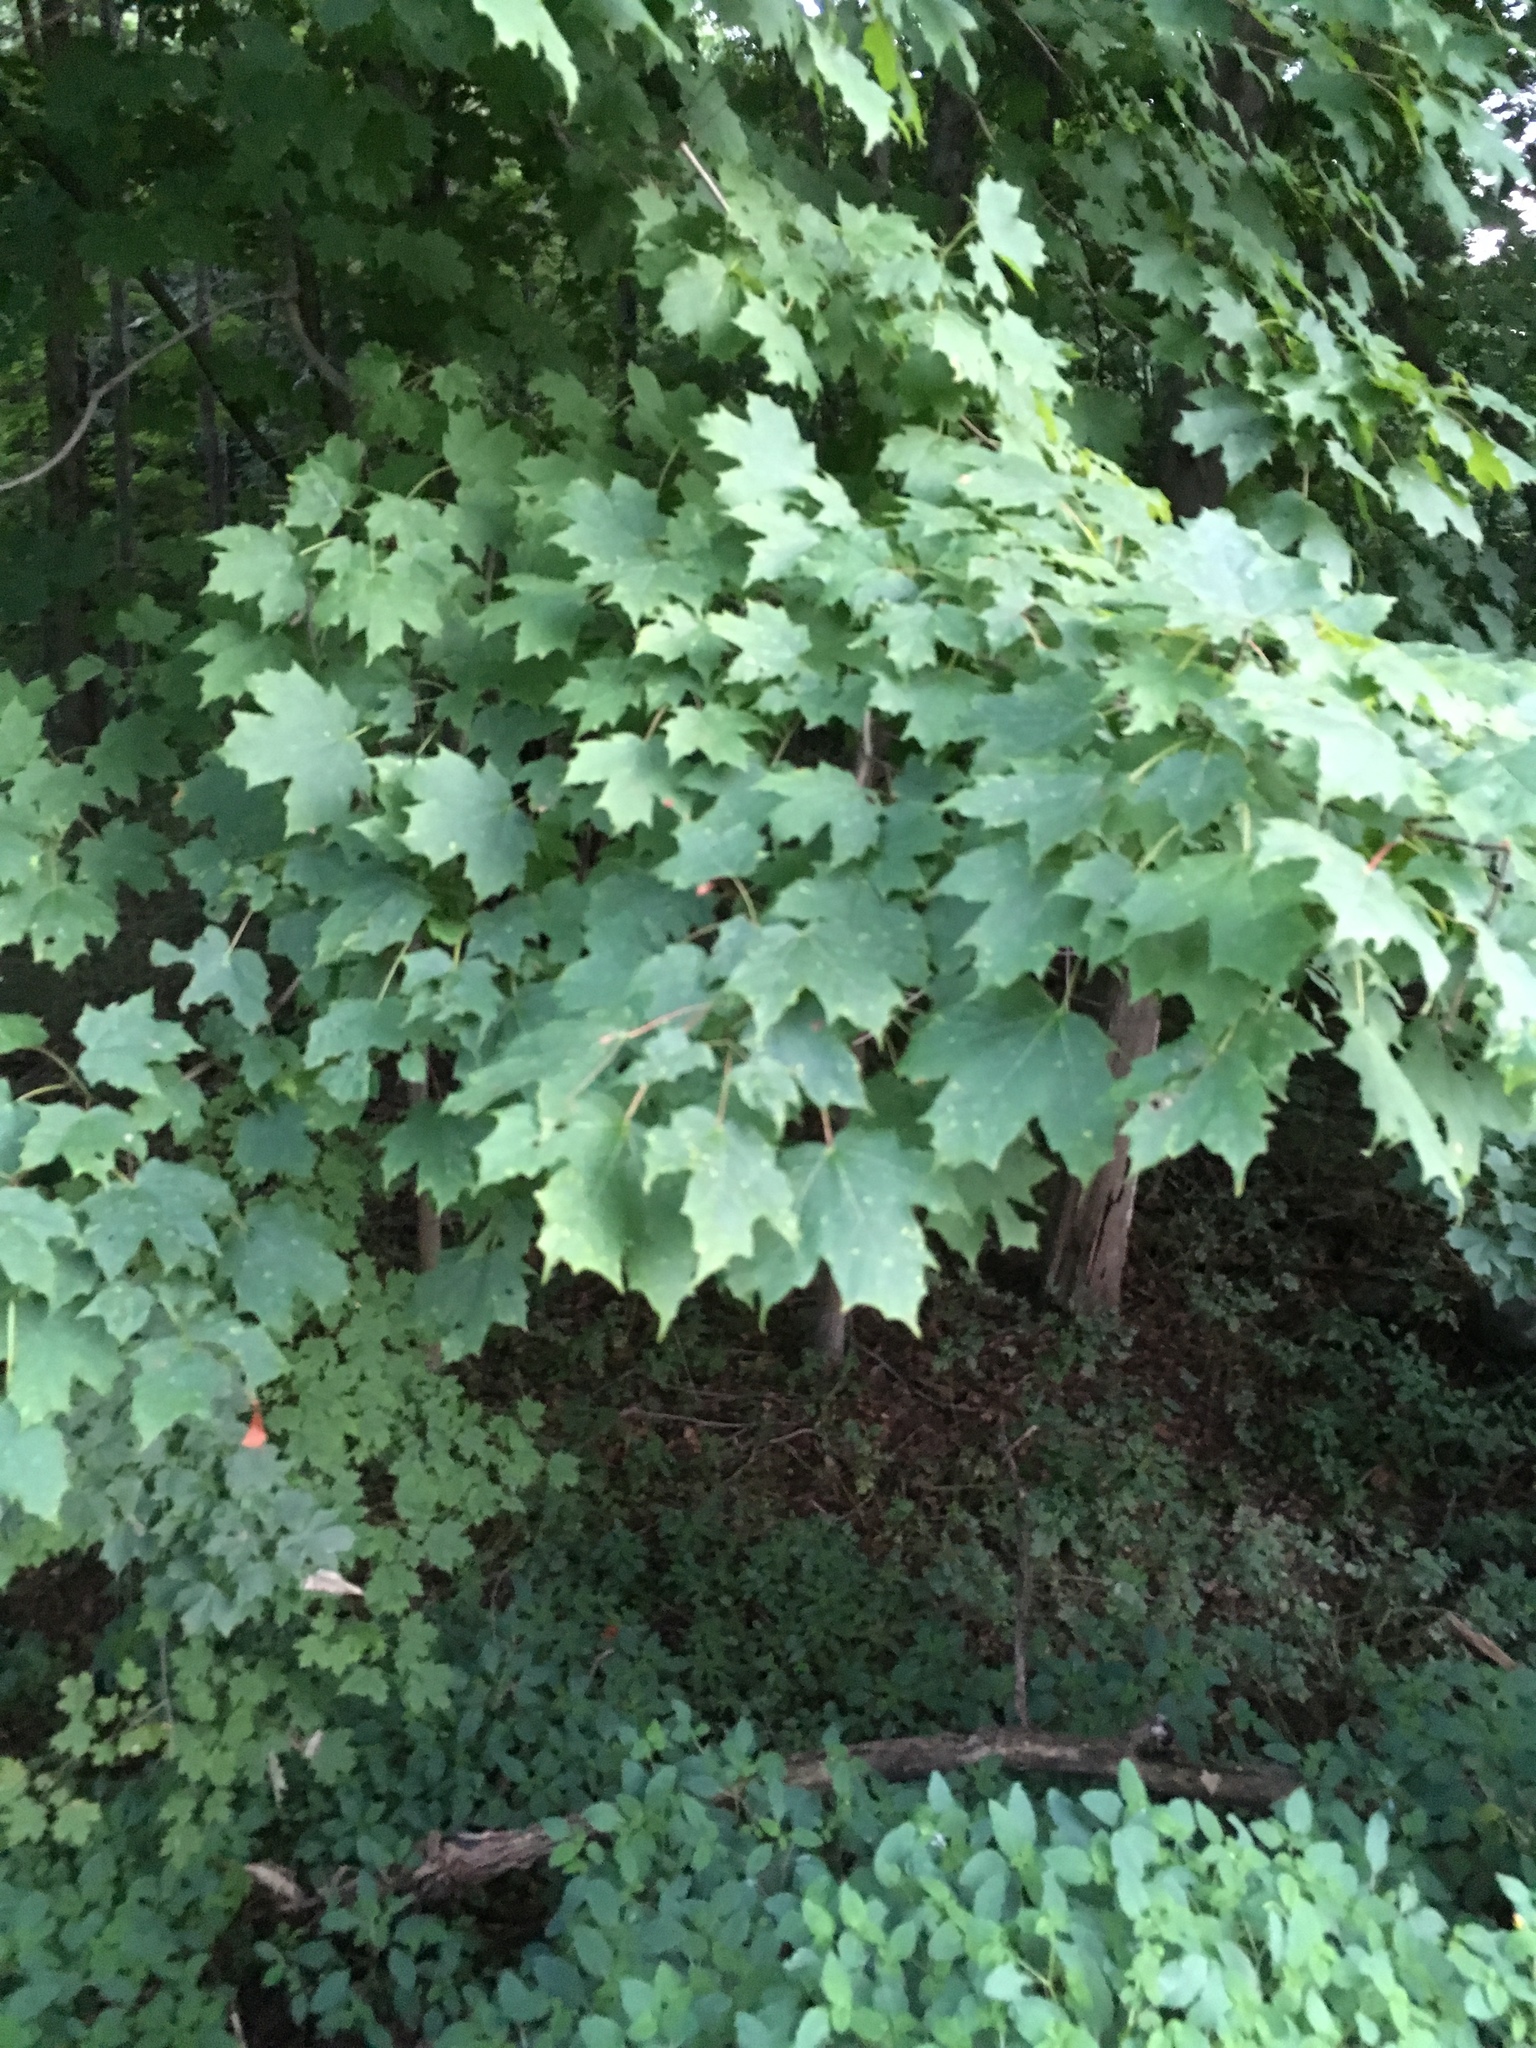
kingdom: Plantae
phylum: Tracheophyta
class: Magnoliopsida
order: Sapindales
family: Sapindaceae
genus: Acer
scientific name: Acer saccharum
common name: Sugar maple
